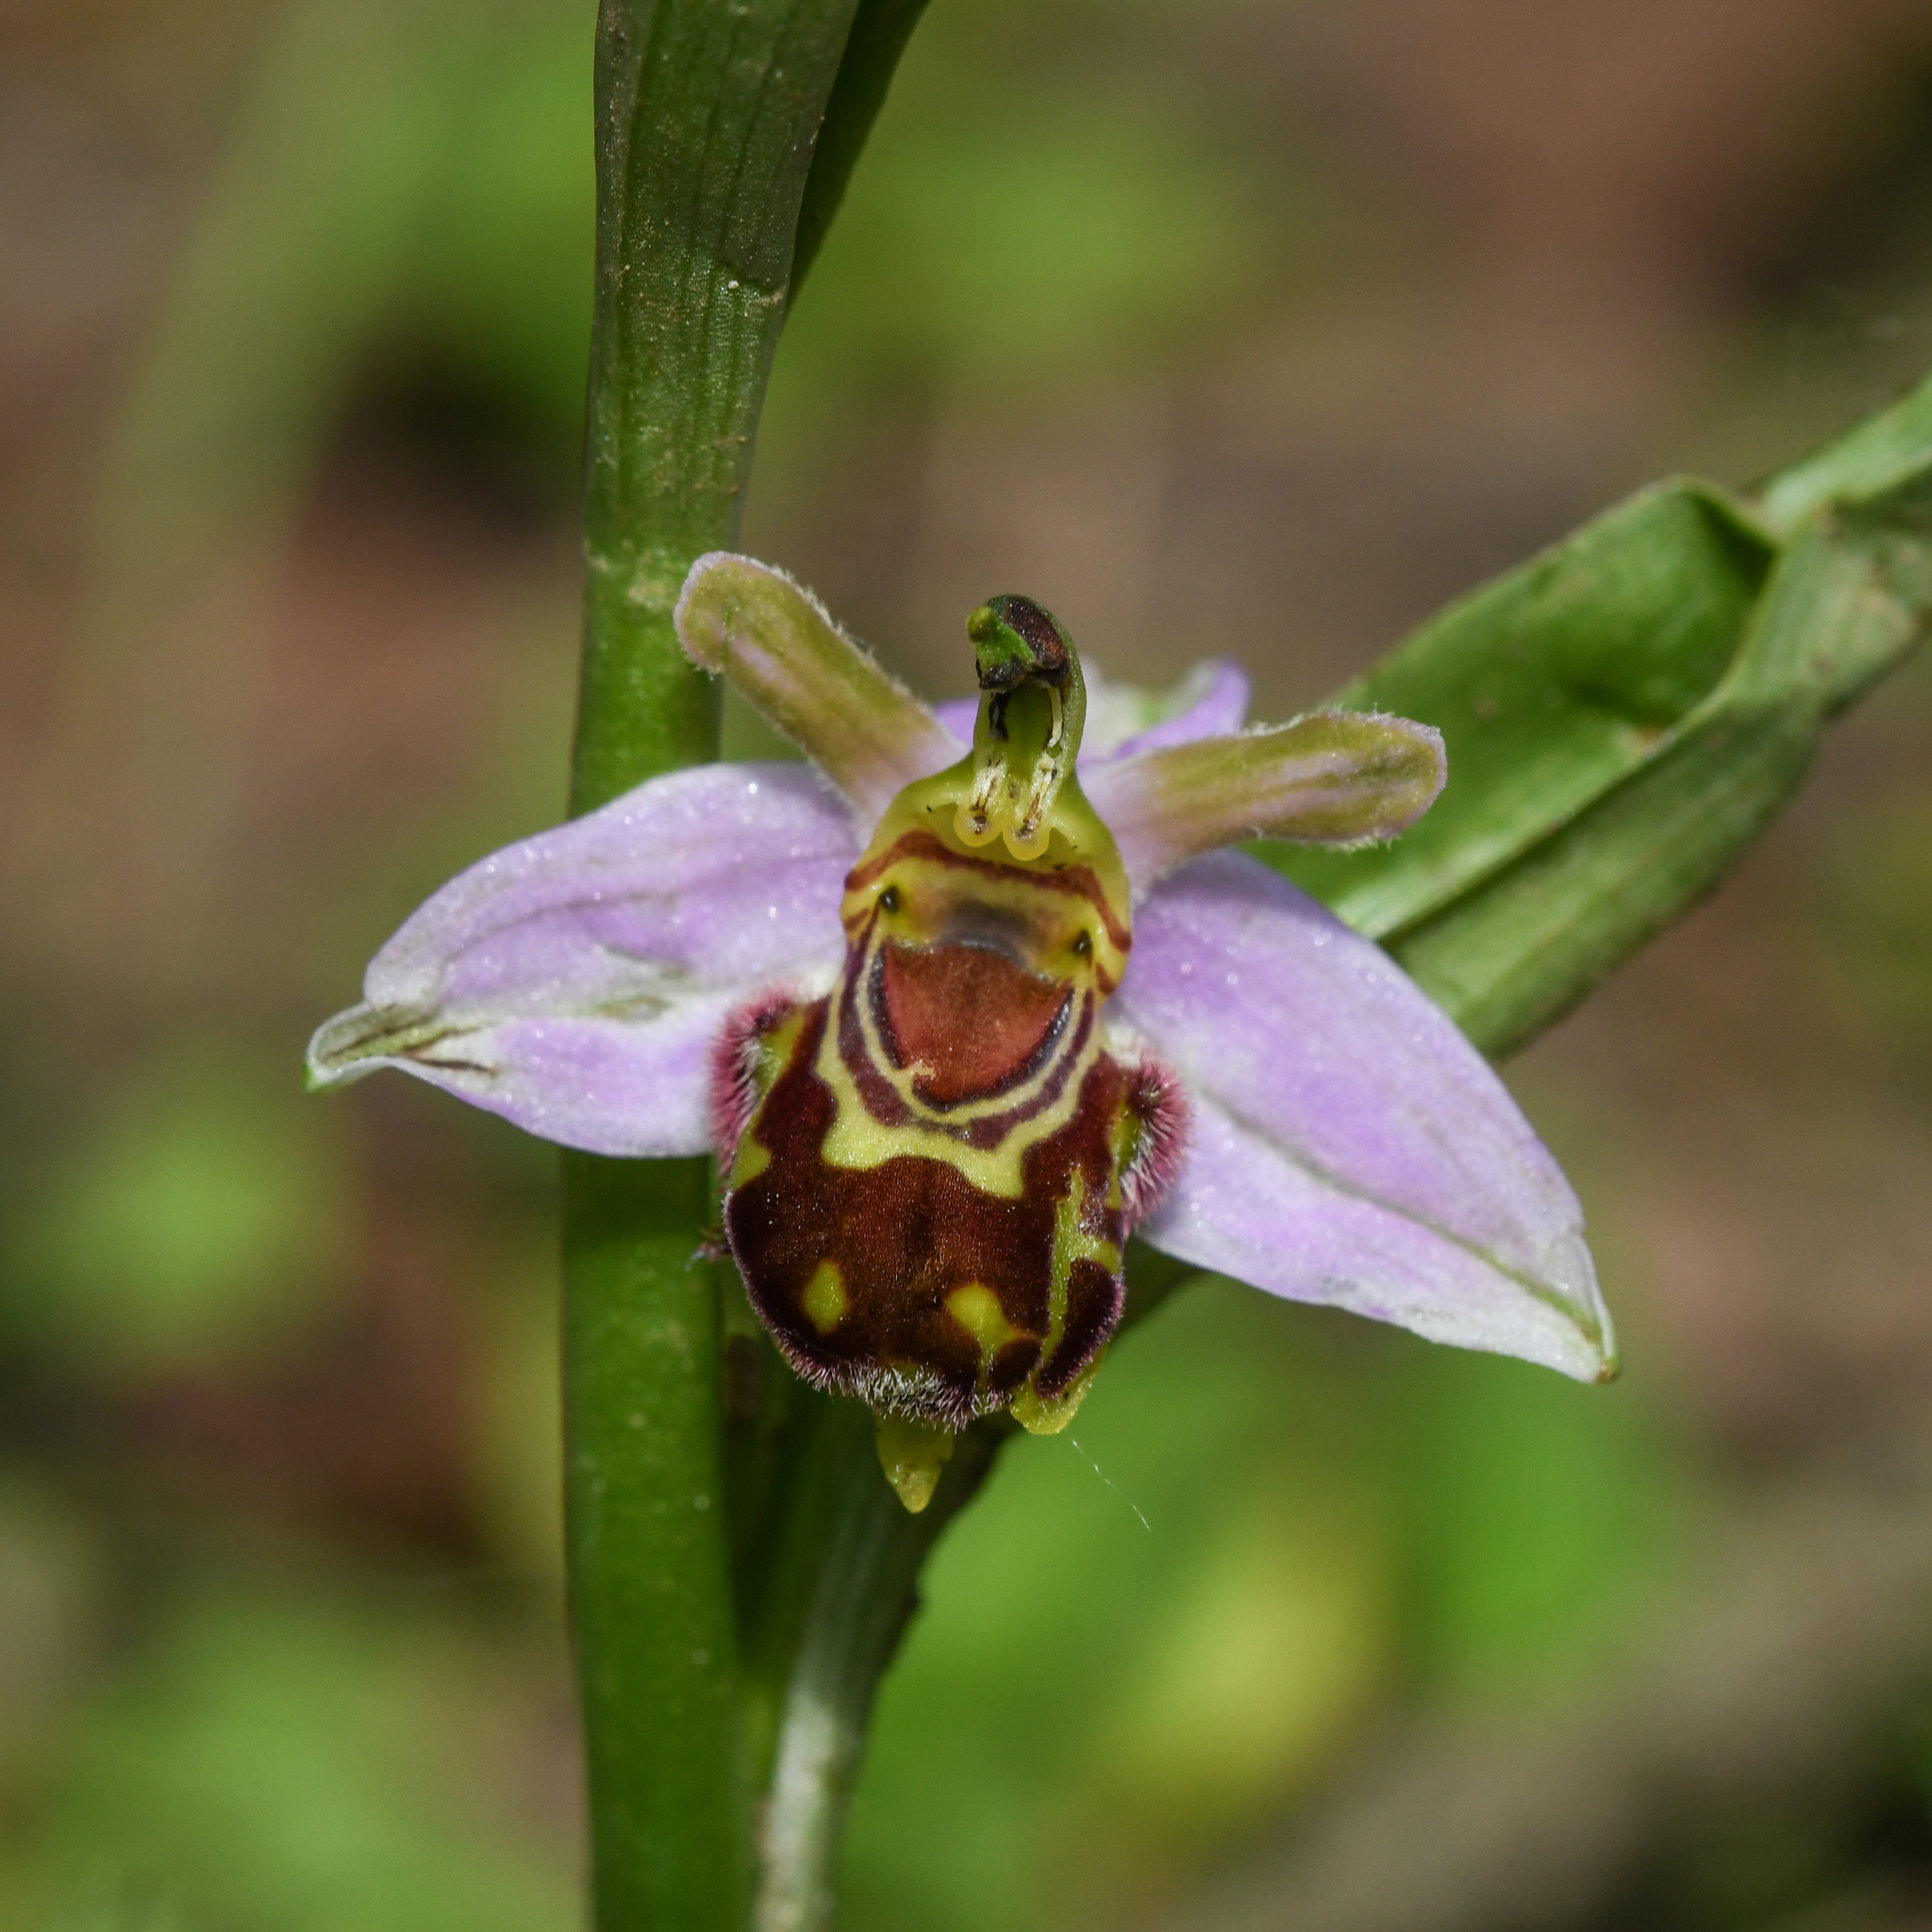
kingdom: Plantae
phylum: Tracheophyta
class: Liliopsida
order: Asparagales
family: Orchidaceae
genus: Ophrys
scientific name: Ophrys apifera
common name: Bee orchid
